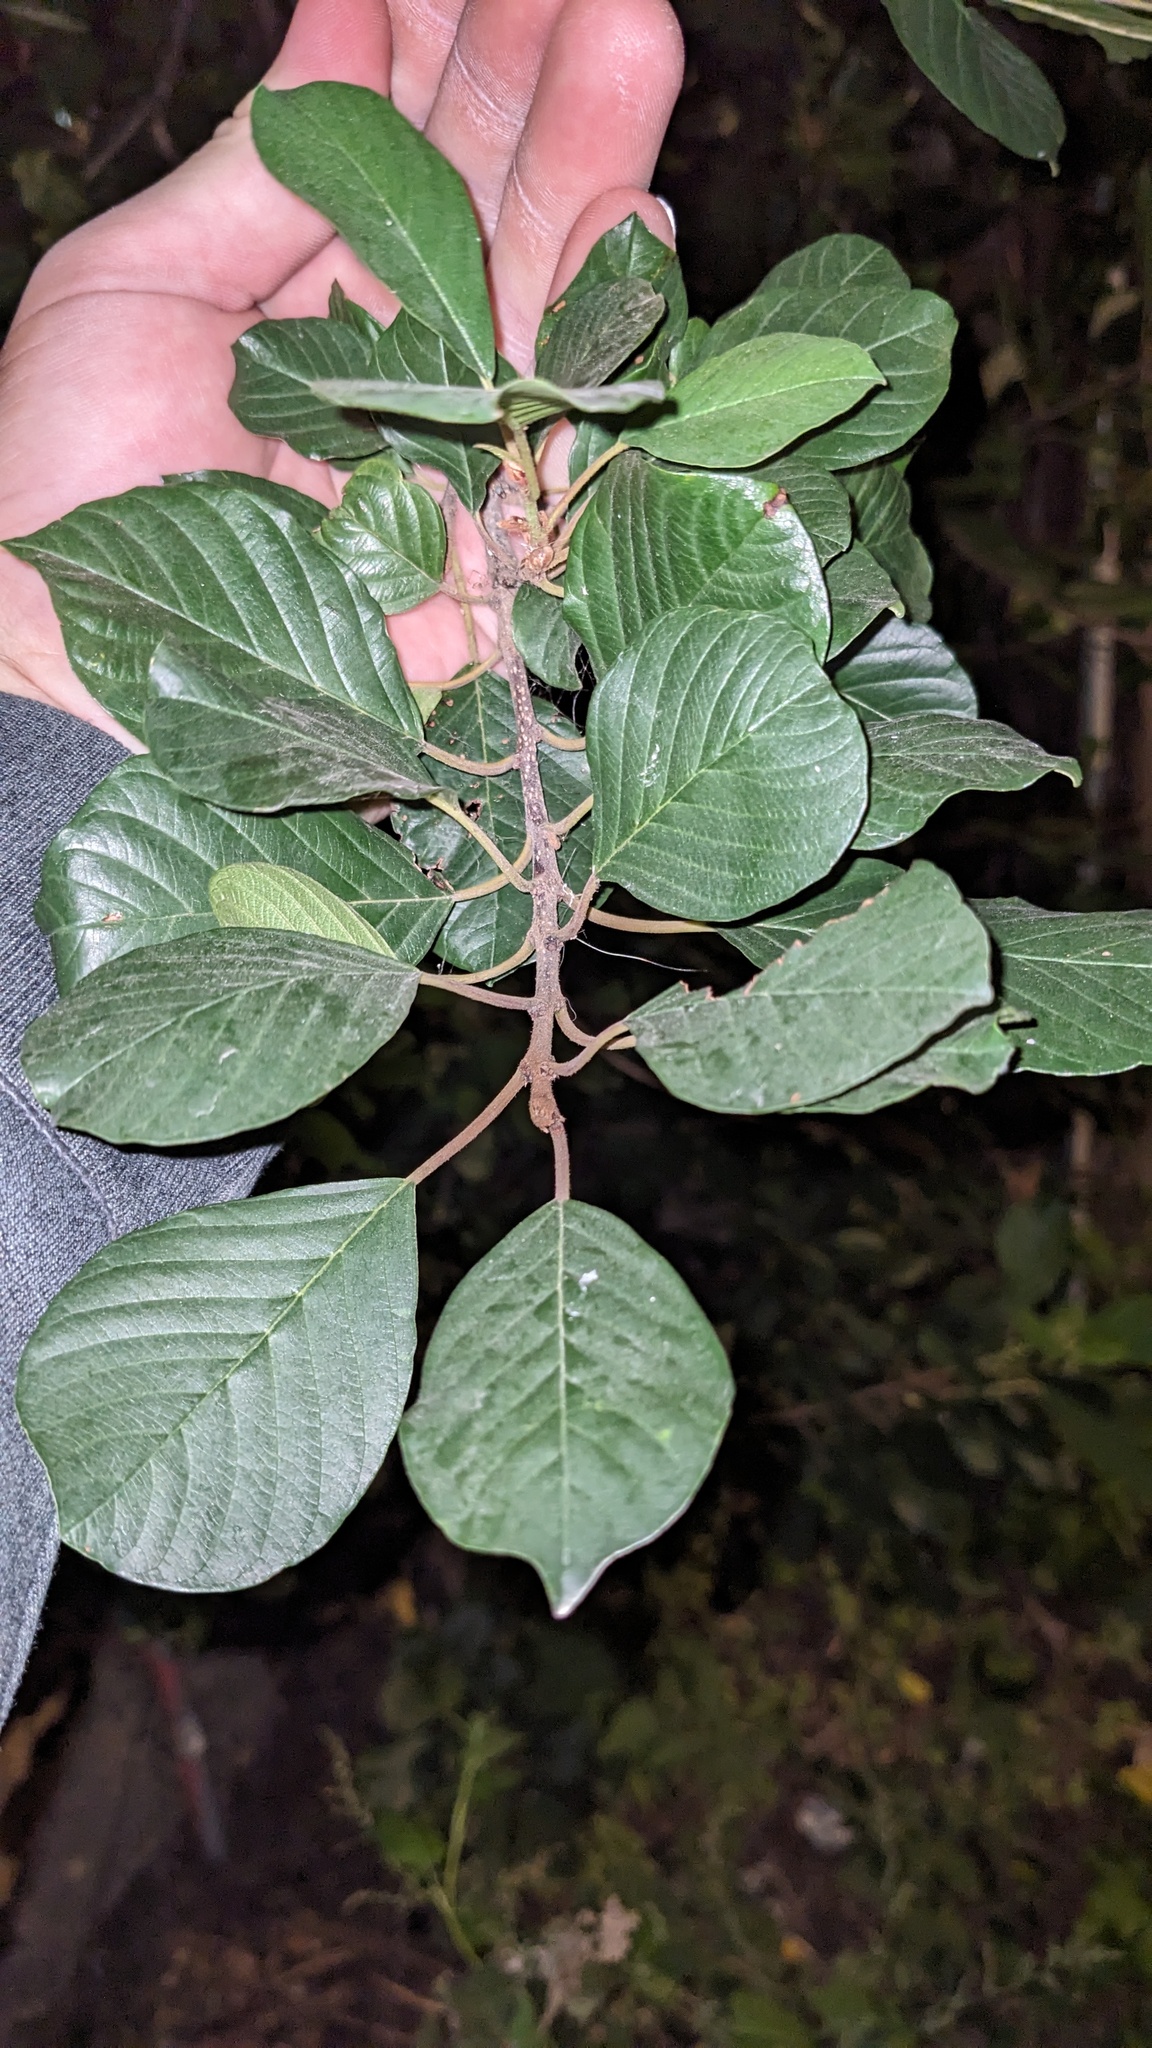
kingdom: Plantae
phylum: Tracheophyta
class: Magnoliopsida
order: Rosales
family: Rhamnaceae
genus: Frangula
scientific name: Frangula alnus
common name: Alder buckthorn
